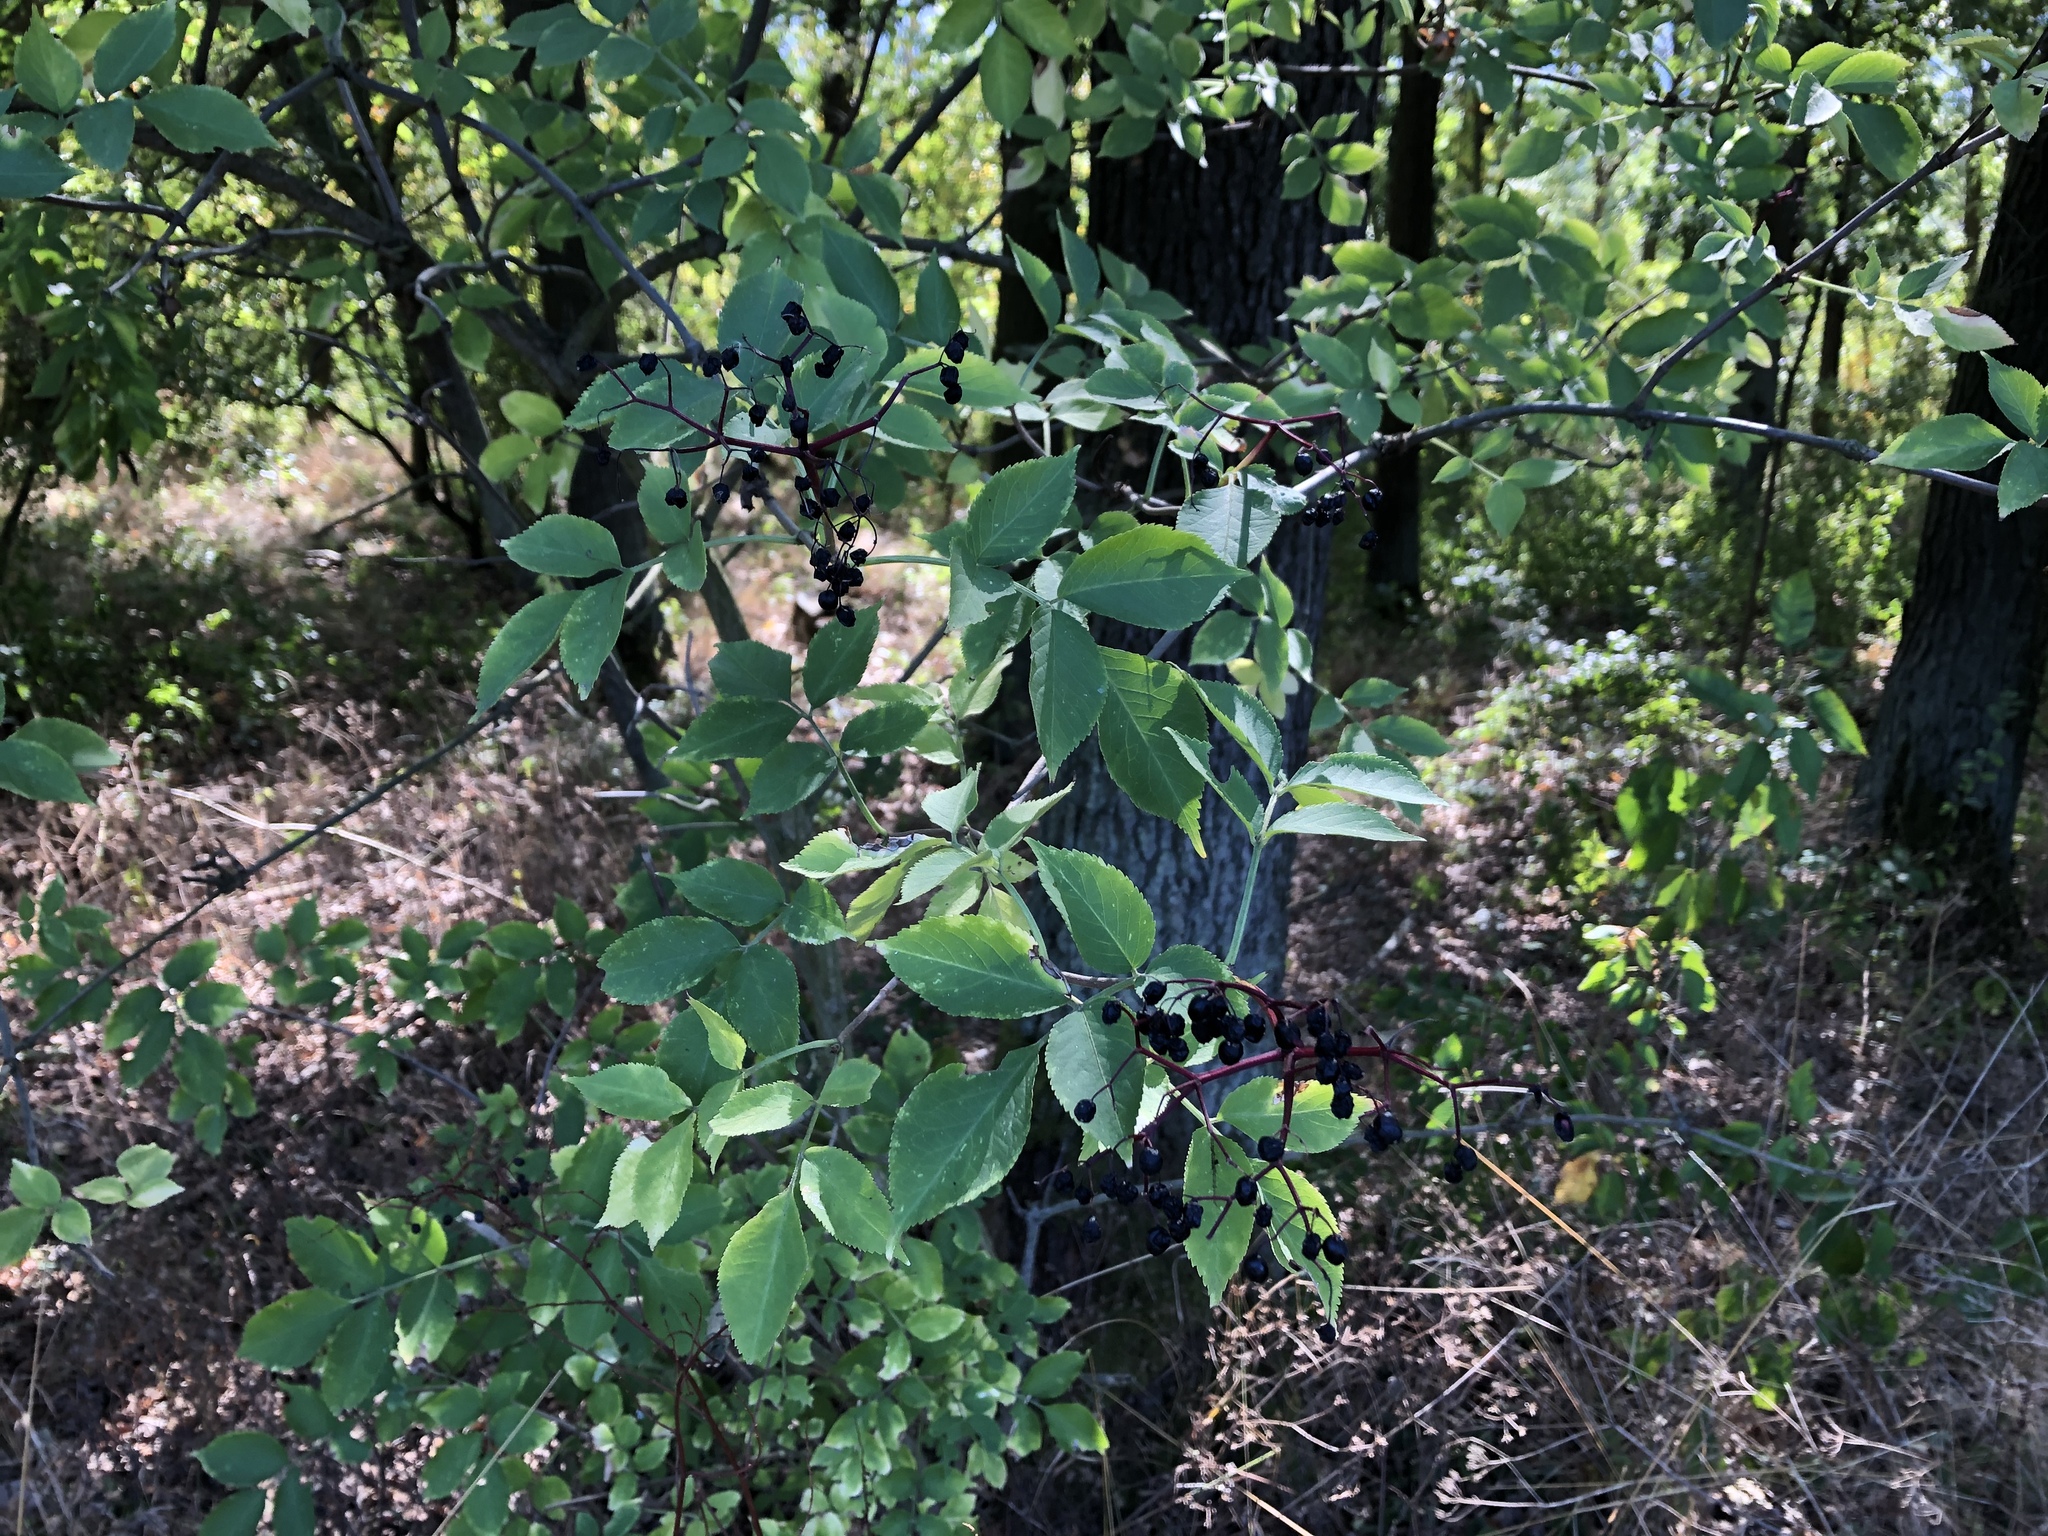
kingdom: Plantae
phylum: Tracheophyta
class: Magnoliopsida
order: Dipsacales
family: Viburnaceae
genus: Sambucus
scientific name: Sambucus nigra
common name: Elder
